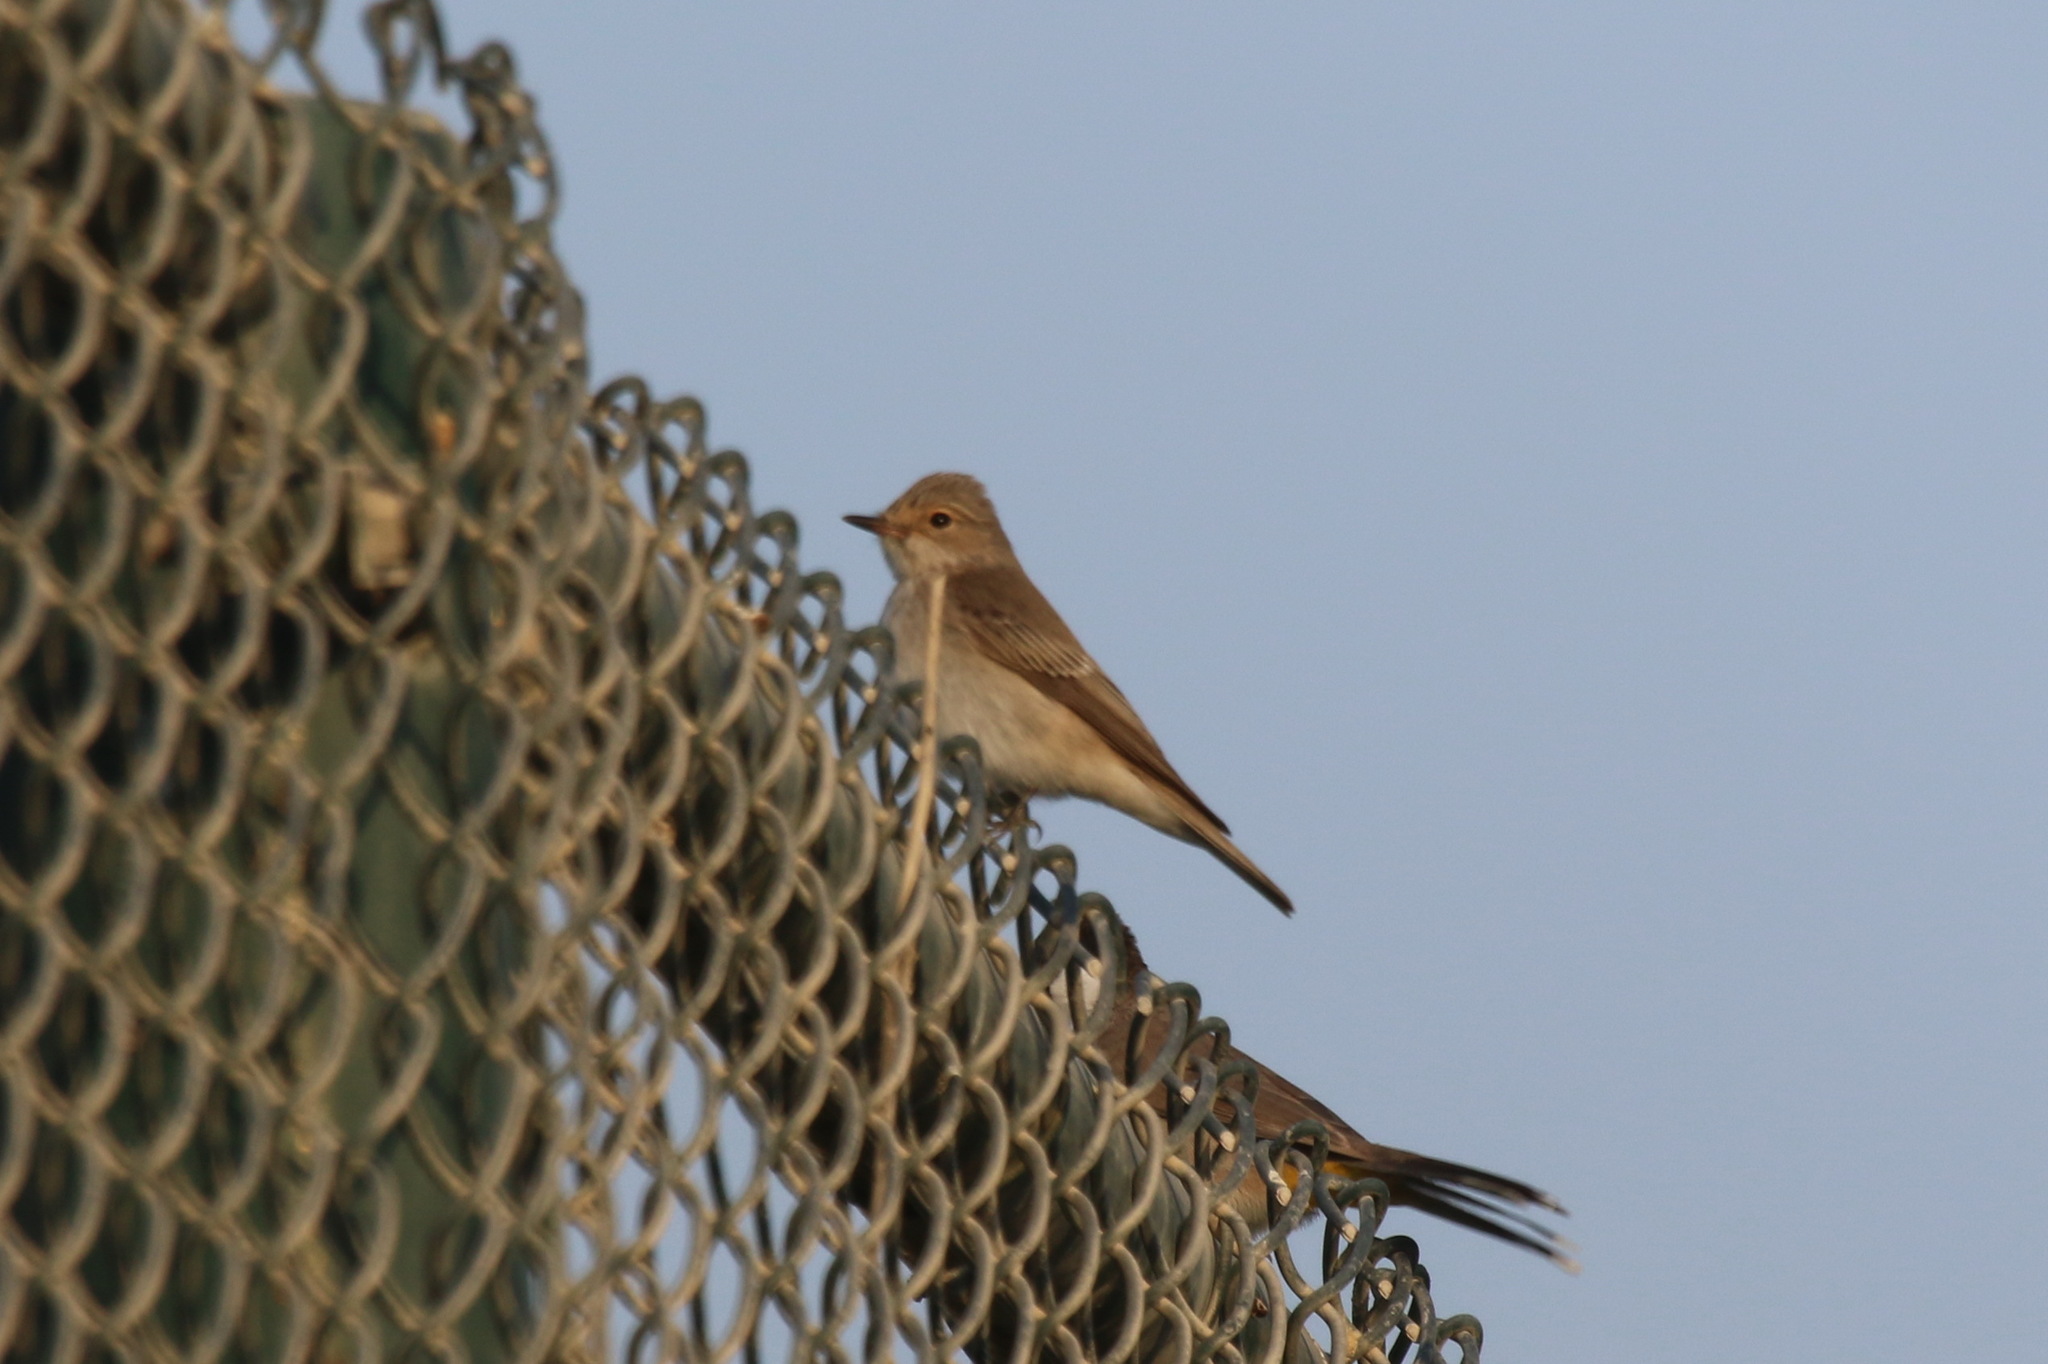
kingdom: Animalia
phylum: Chordata
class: Aves
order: Passeriformes
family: Muscicapidae
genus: Muscicapa
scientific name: Muscicapa striata
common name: Spotted flycatcher
